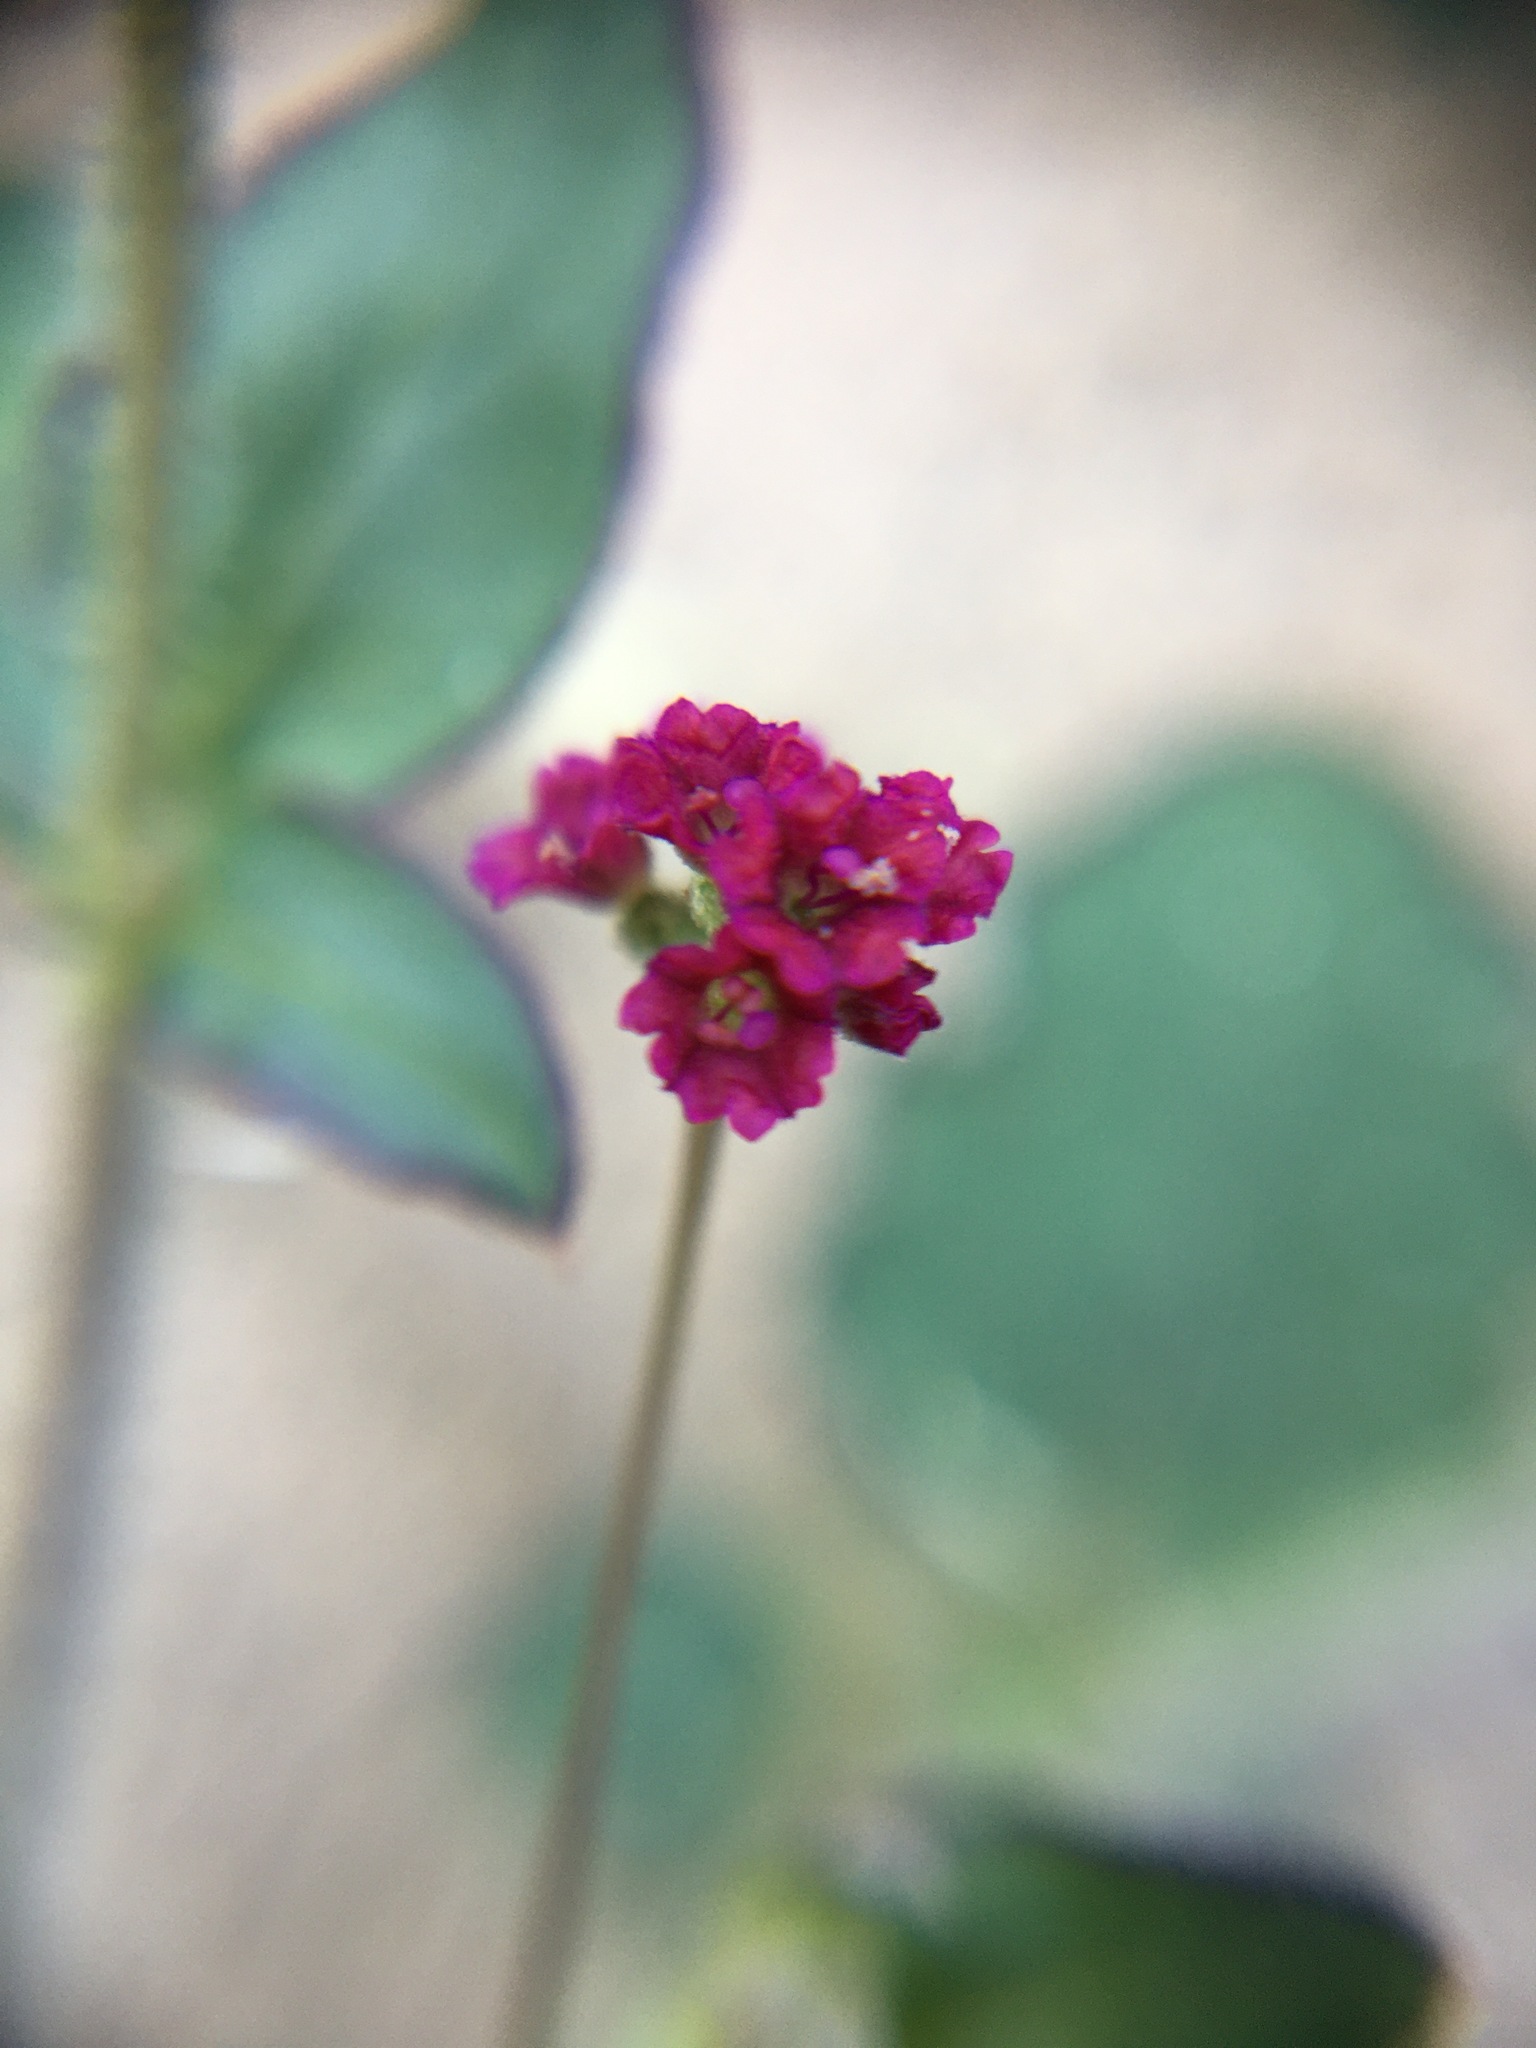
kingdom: Plantae
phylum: Tracheophyta
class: Magnoliopsida
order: Caryophyllales
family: Nyctaginaceae
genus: Boerhavia
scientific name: Boerhavia coccinea
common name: Scarlet spiderling
